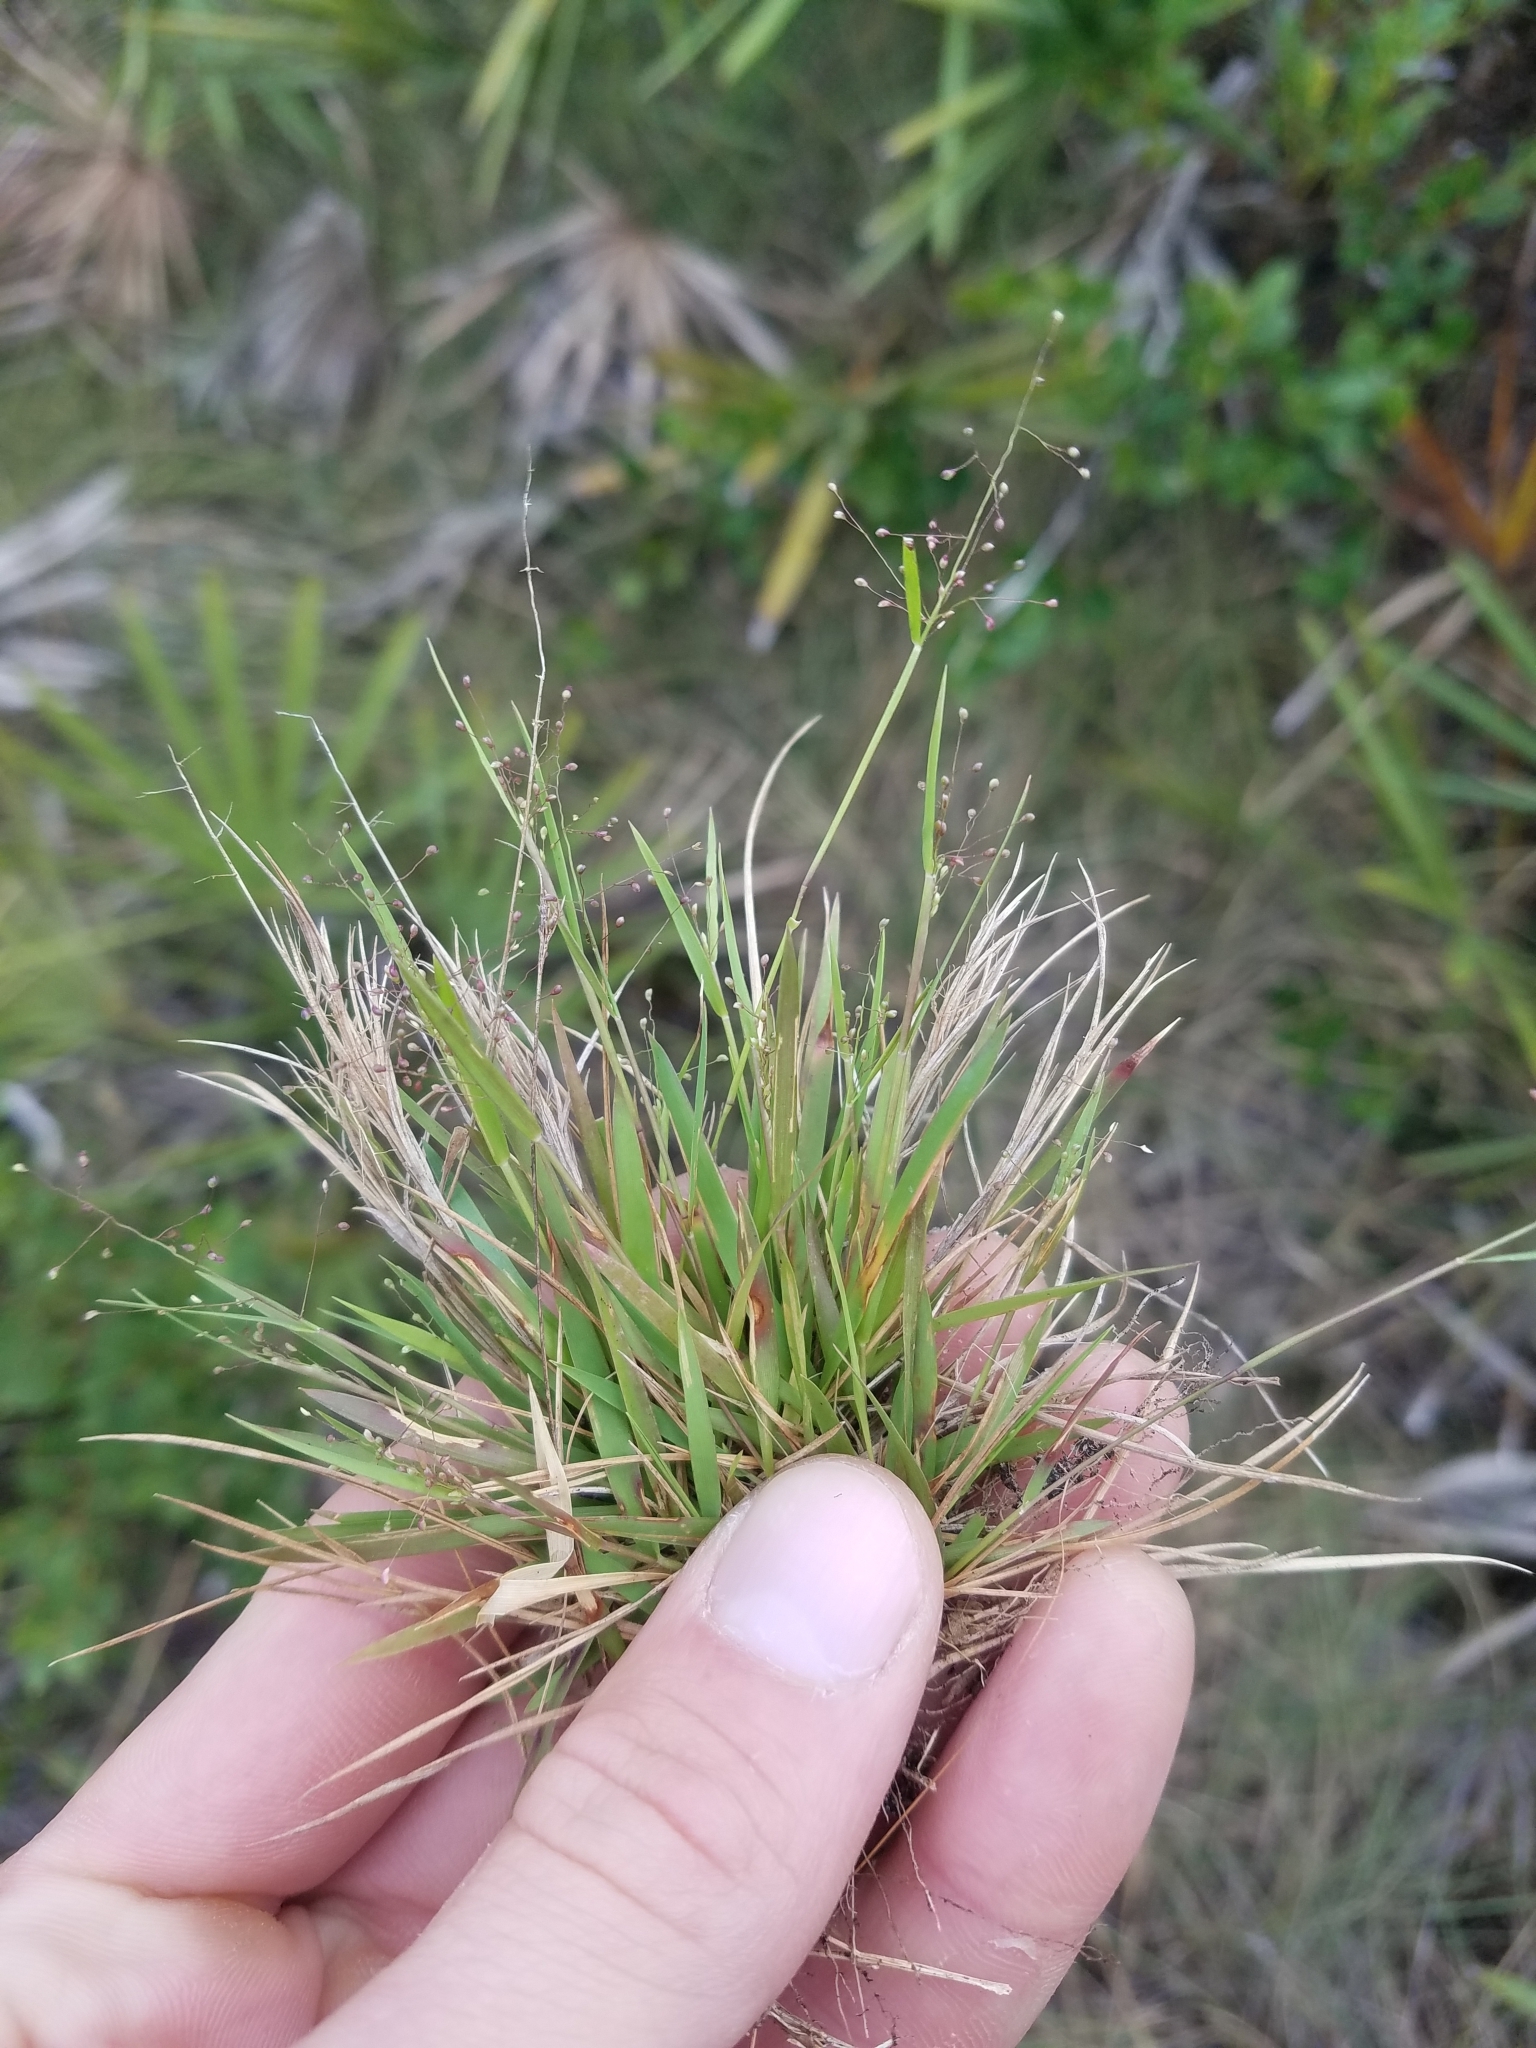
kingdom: Plantae
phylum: Tracheophyta
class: Liliopsida
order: Poales
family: Poaceae
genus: Dichanthelium
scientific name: Dichanthelium chamaelonche
